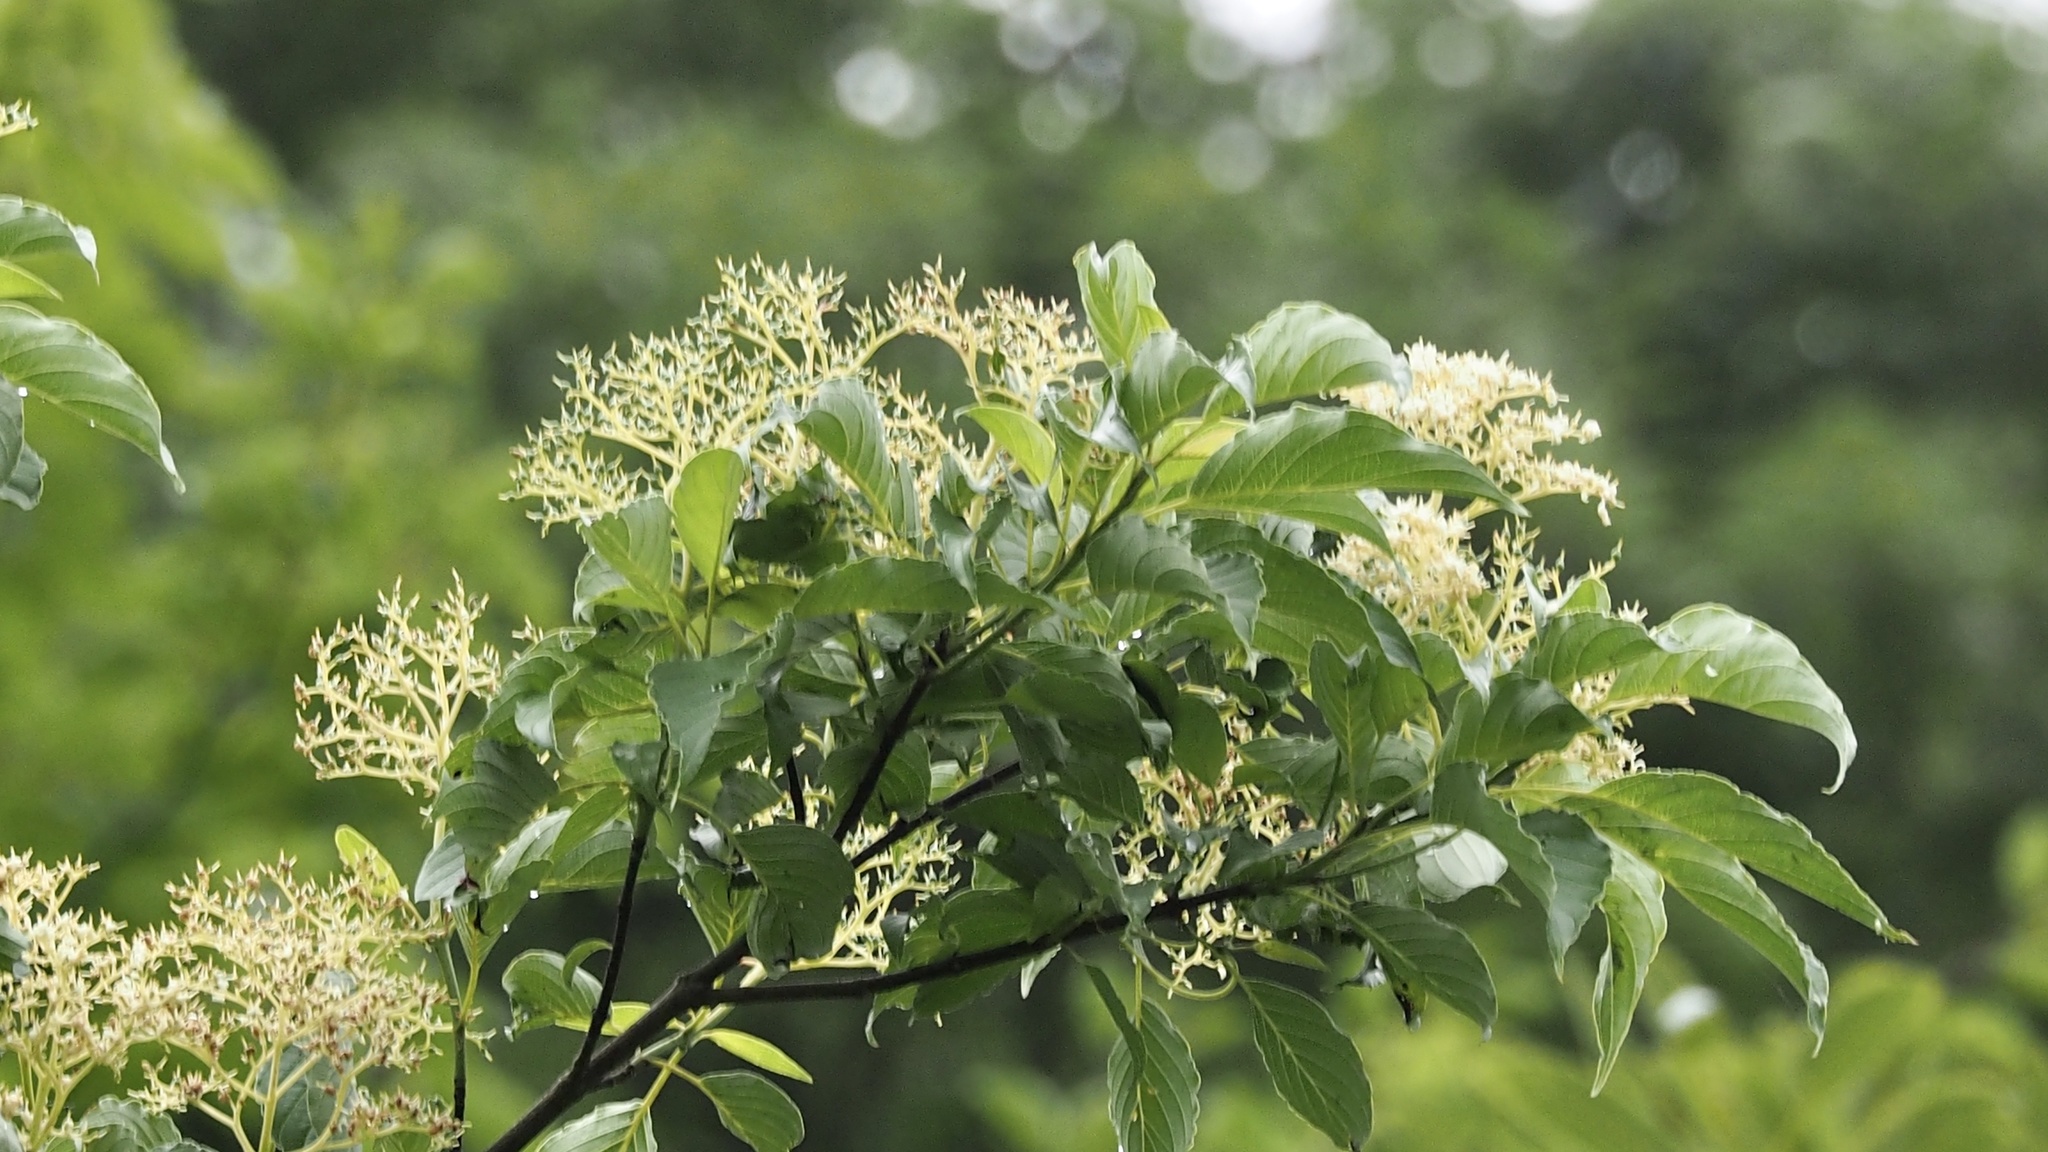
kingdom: Plantae
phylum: Tracheophyta
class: Magnoliopsida
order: Cornales
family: Cornaceae
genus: Cornus
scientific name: Cornus macrophylla
